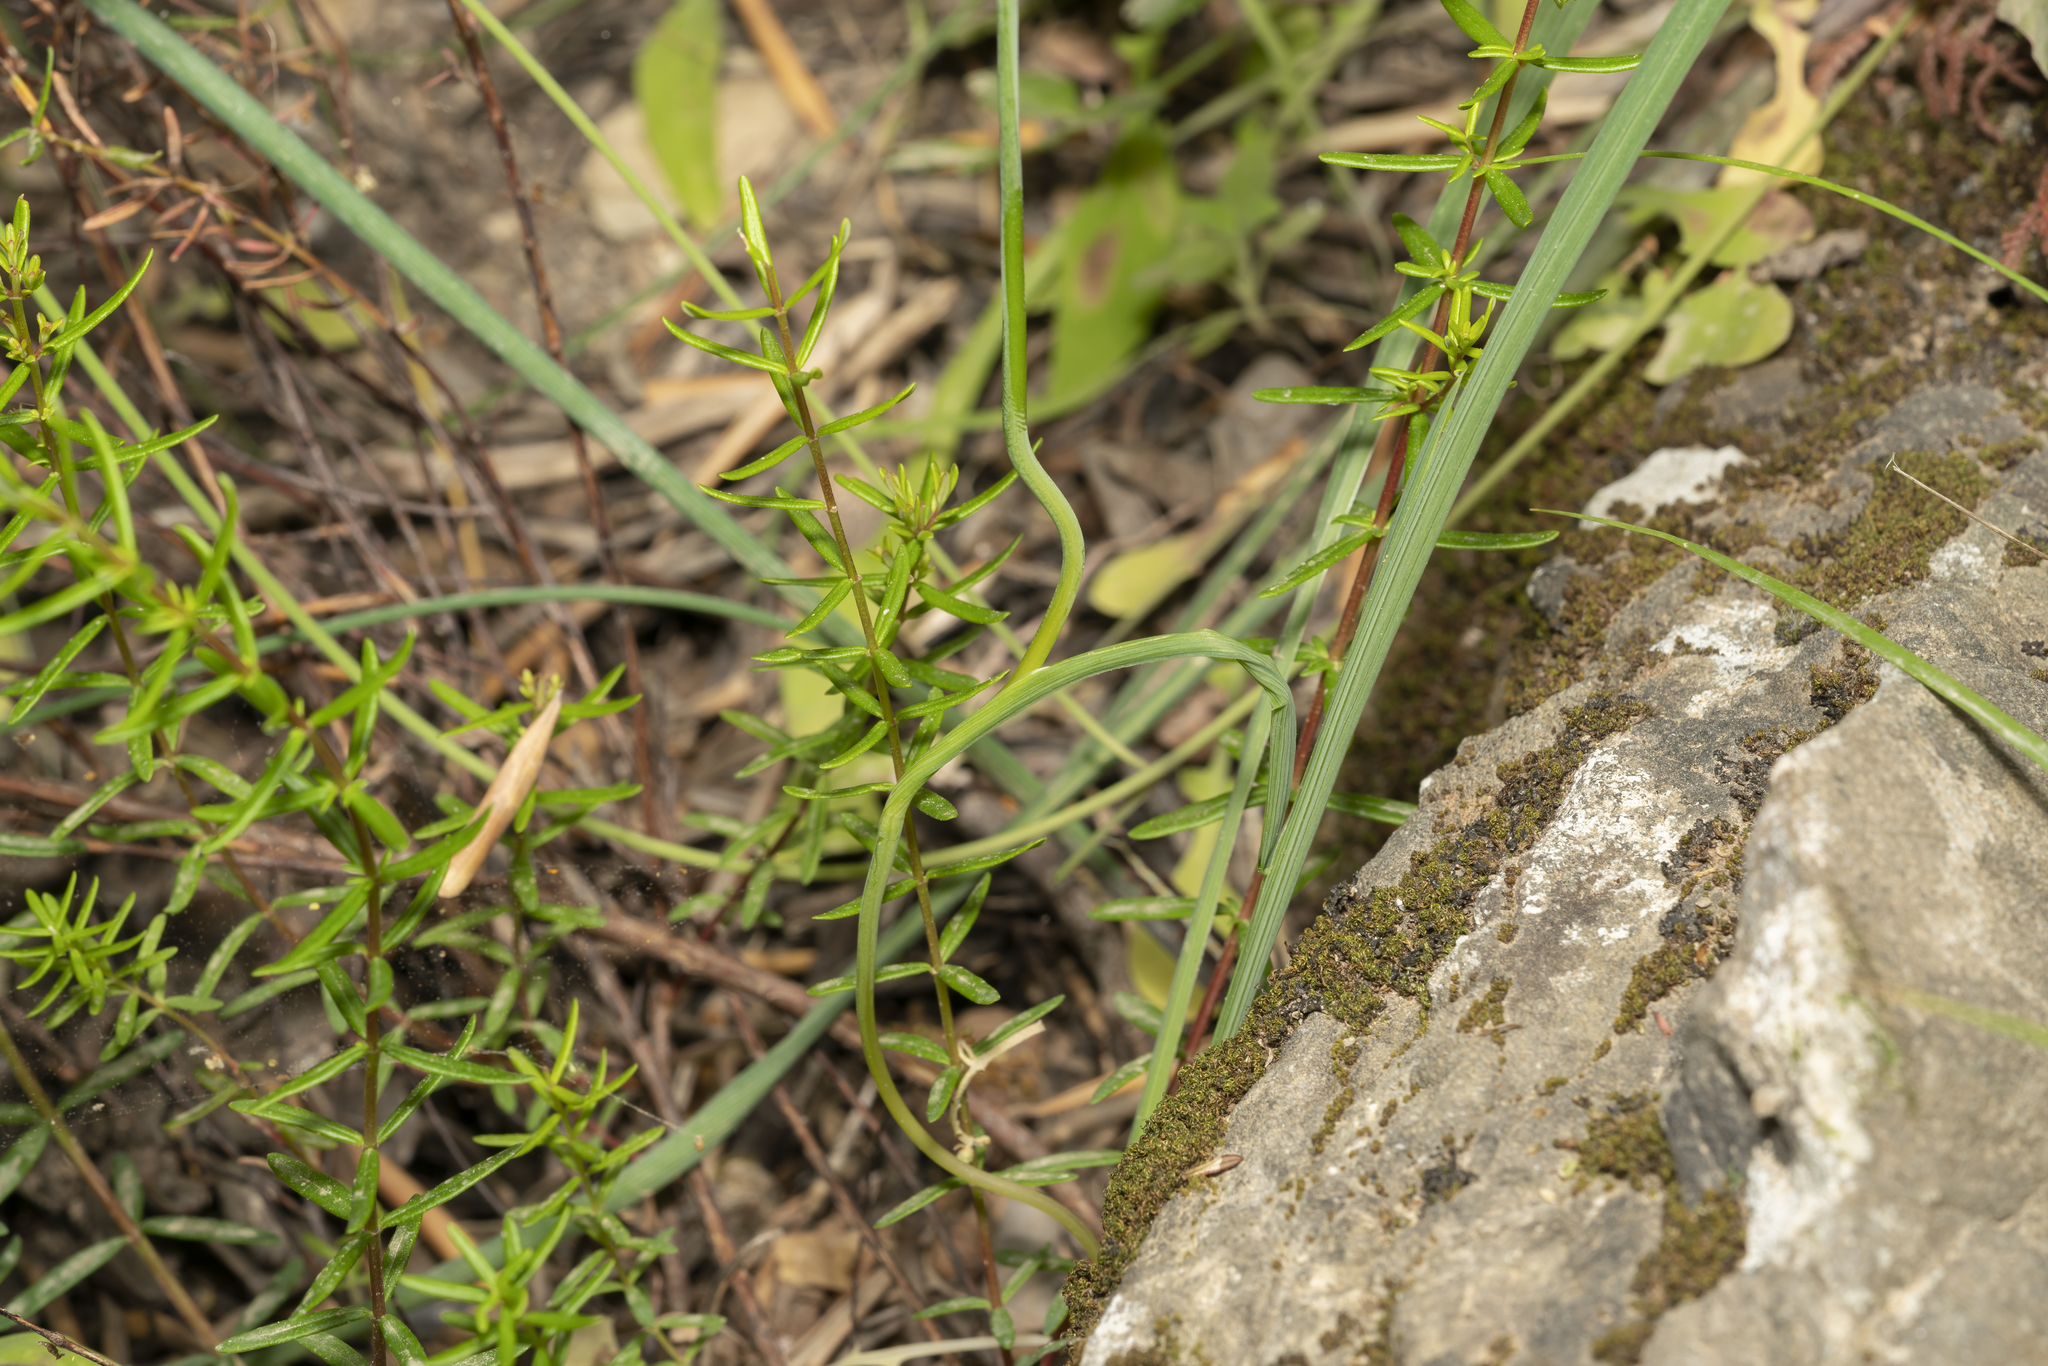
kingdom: Plantae
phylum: Tracheophyta
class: Liliopsida
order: Asparagales
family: Iridaceae
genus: Gladiolus
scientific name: Gladiolus anatolicus
